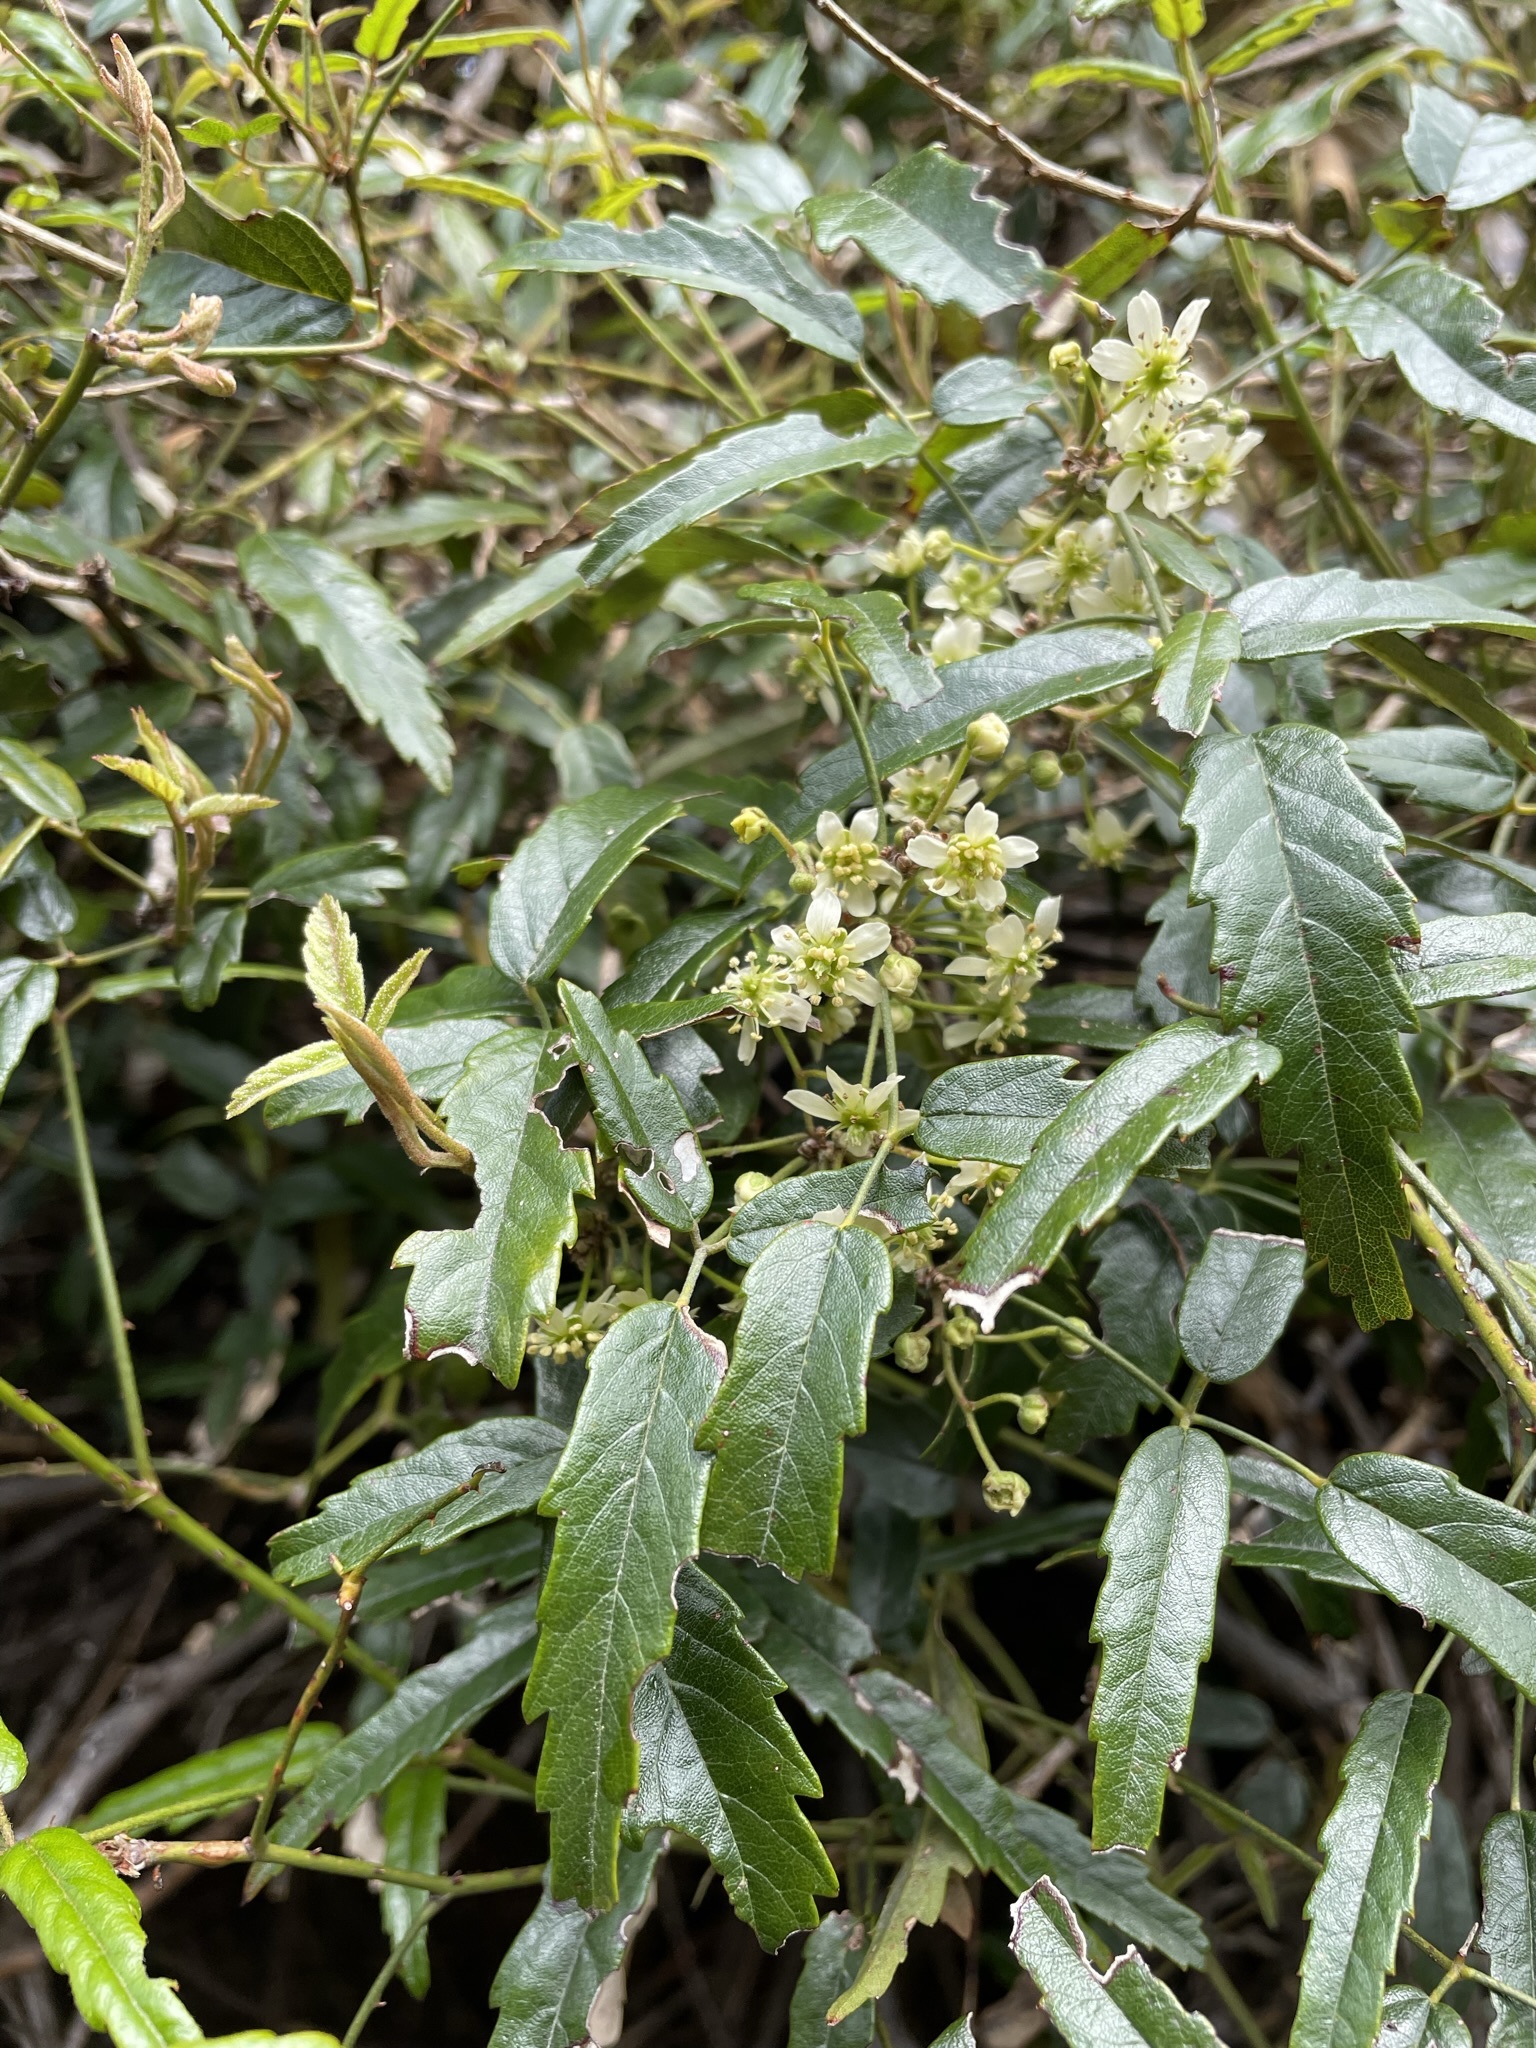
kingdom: Plantae
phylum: Tracheophyta
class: Magnoliopsida
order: Rosales
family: Rosaceae
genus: Rubus
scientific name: Rubus schmidelioides
